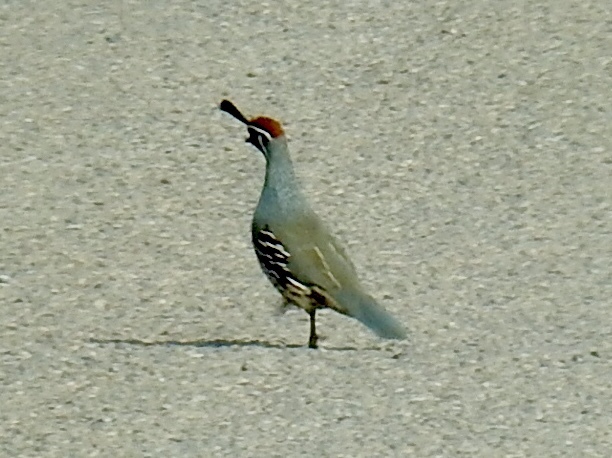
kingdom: Animalia
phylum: Chordata
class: Aves
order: Galliformes
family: Odontophoridae
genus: Callipepla
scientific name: Callipepla gambelii
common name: Gambel's quail
